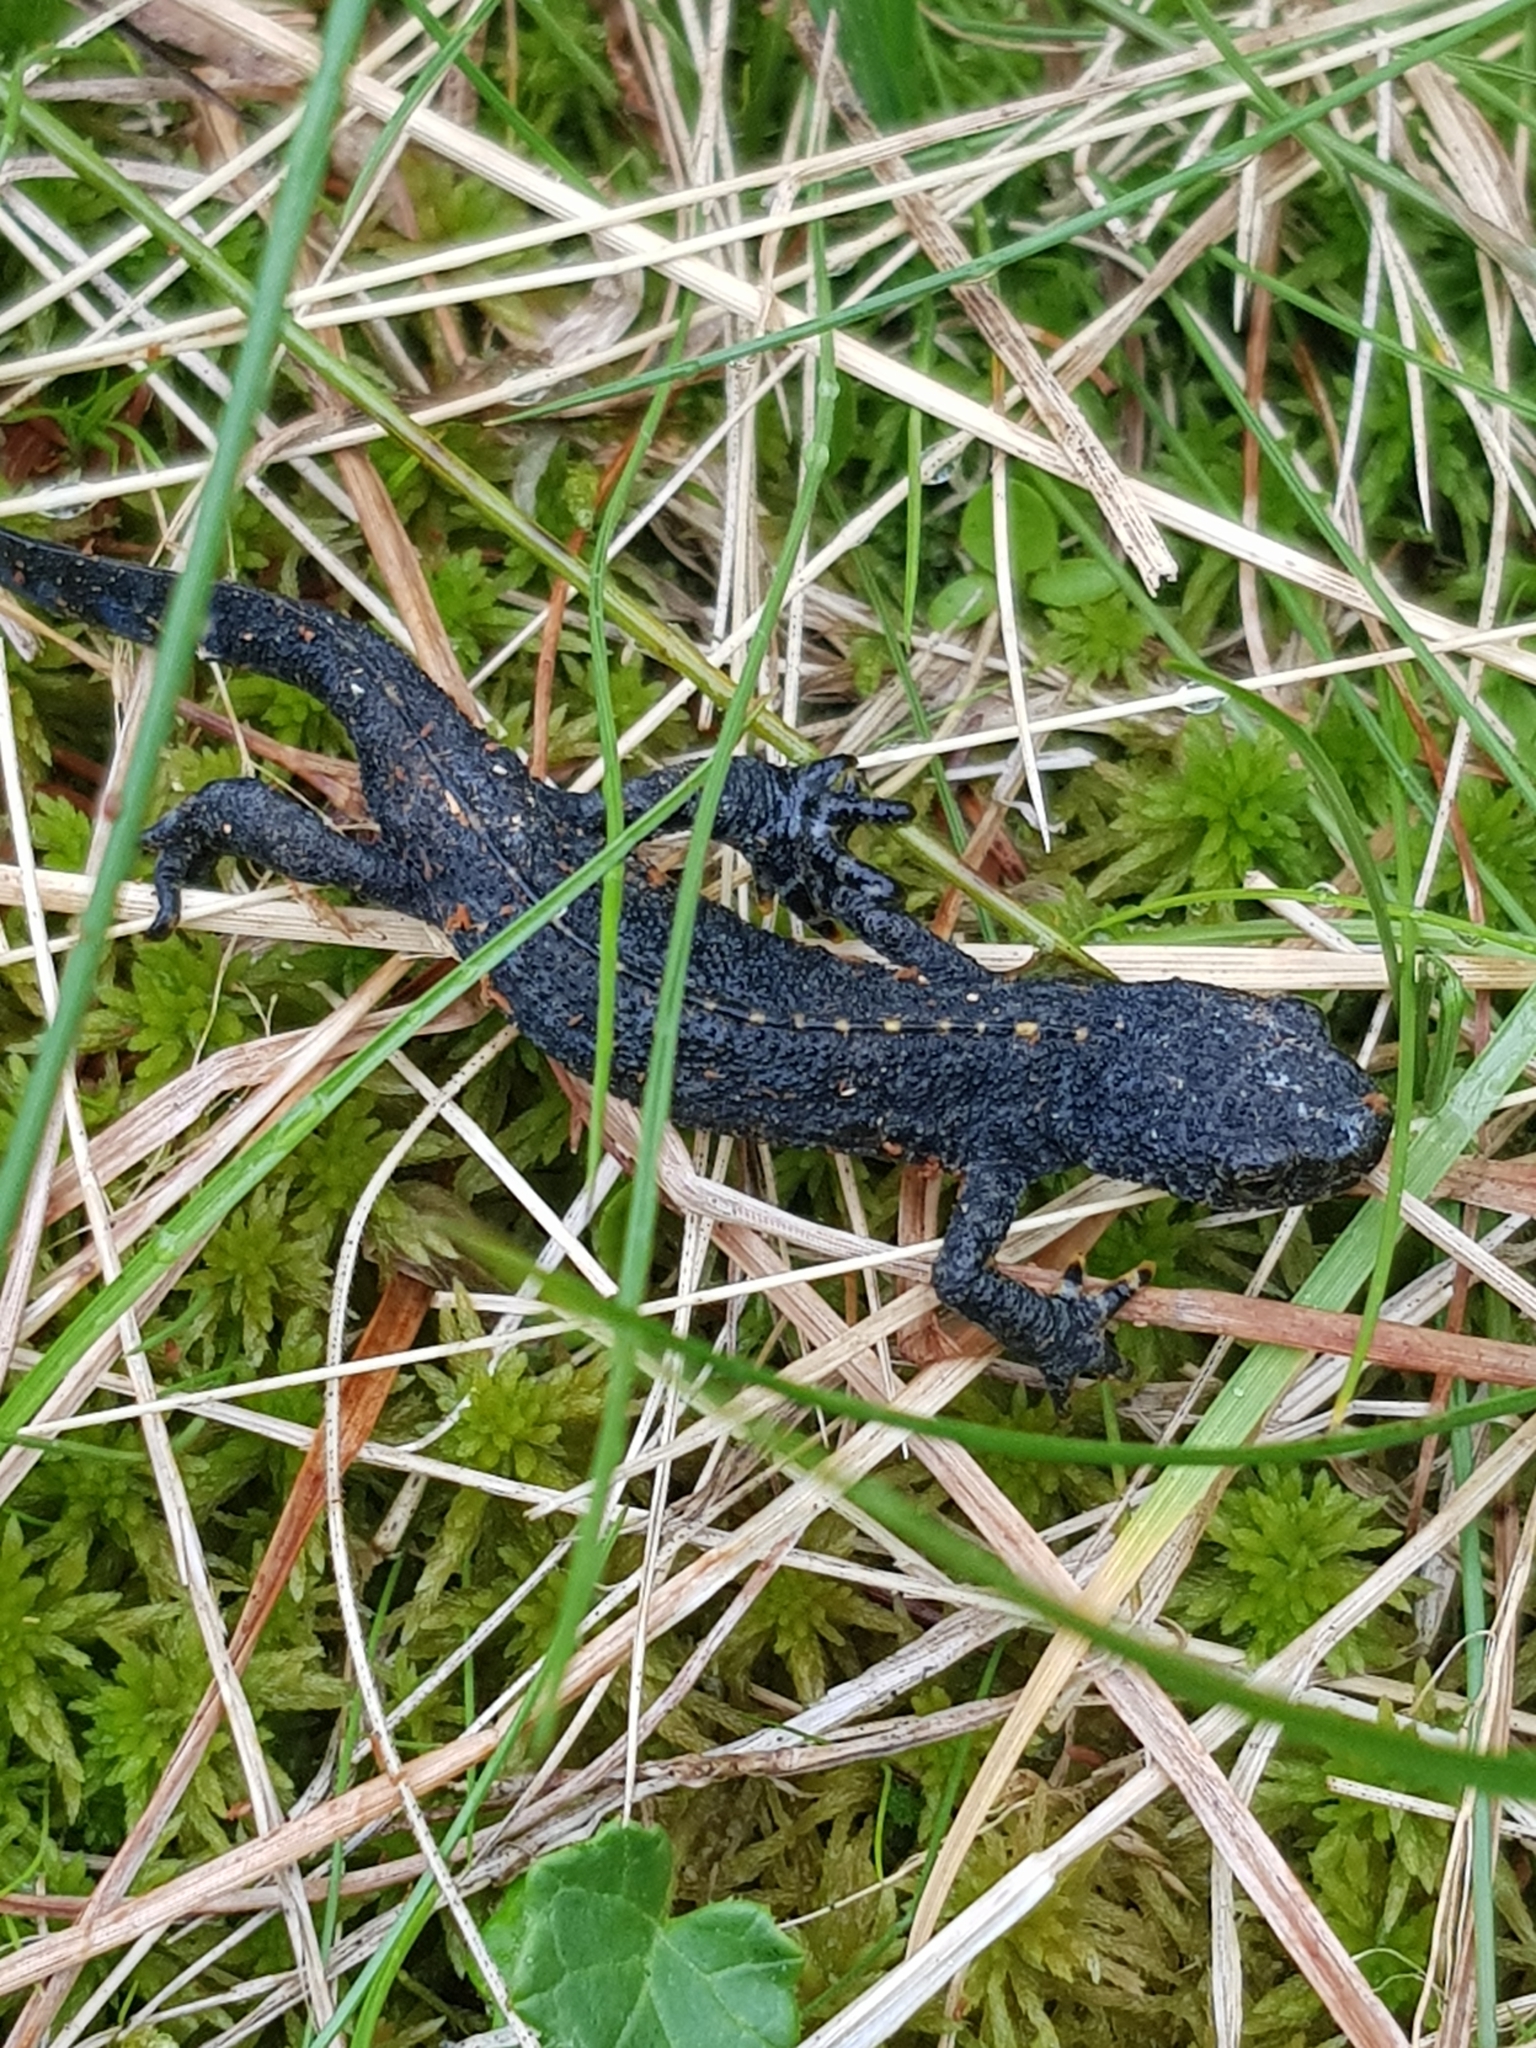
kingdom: Animalia
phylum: Chordata
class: Amphibia
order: Caudata
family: Salamandridae
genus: Ichthyosaura
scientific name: Ichthyosaura alpestris
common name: Alpine newt
